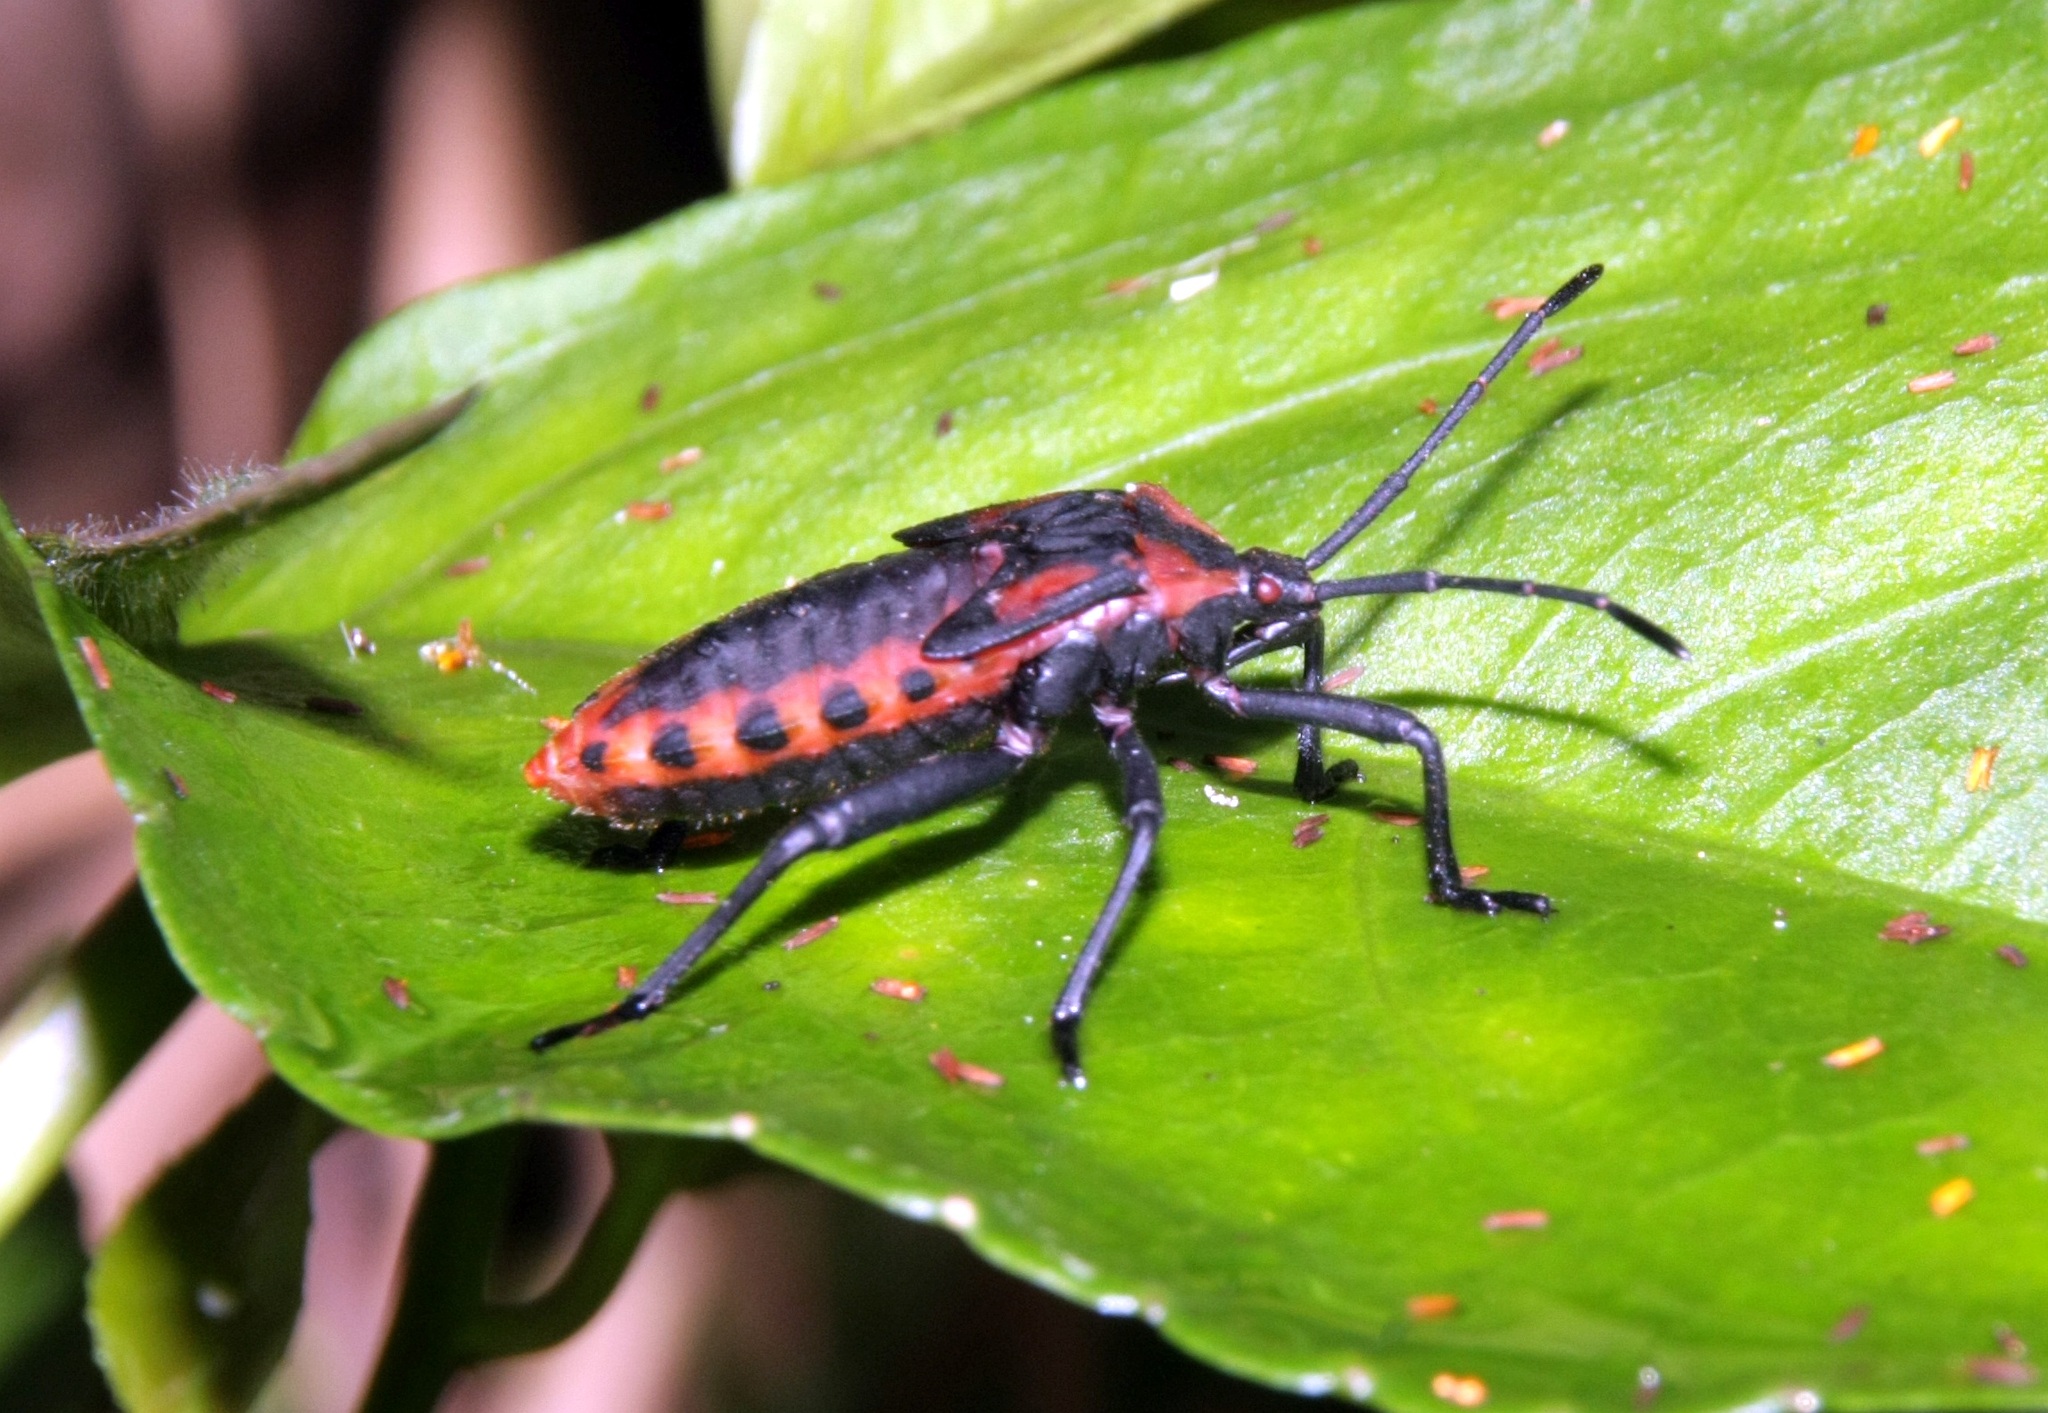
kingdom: Animalia
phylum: Arthropoda
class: Insecta
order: Hemiptera
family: Coreidae
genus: Piezogaster
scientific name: Piezogaster rubropictus
